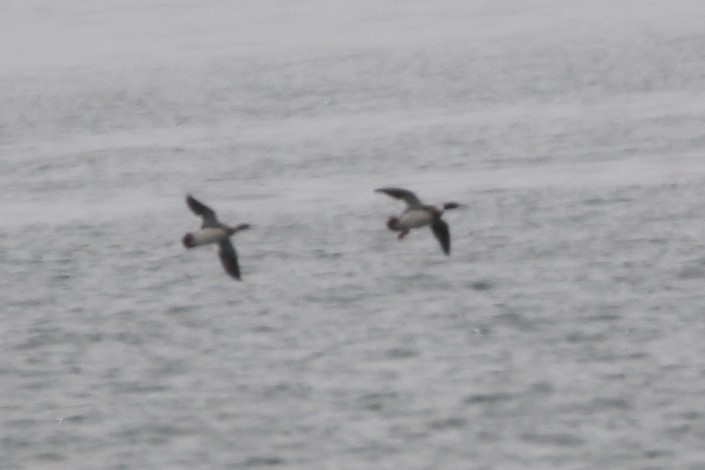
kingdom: Animalia
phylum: Chordata
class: Aves
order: Anseriformes
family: Anatidae
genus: Mergus
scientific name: Mergus serrator
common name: Red-breasted merganser
